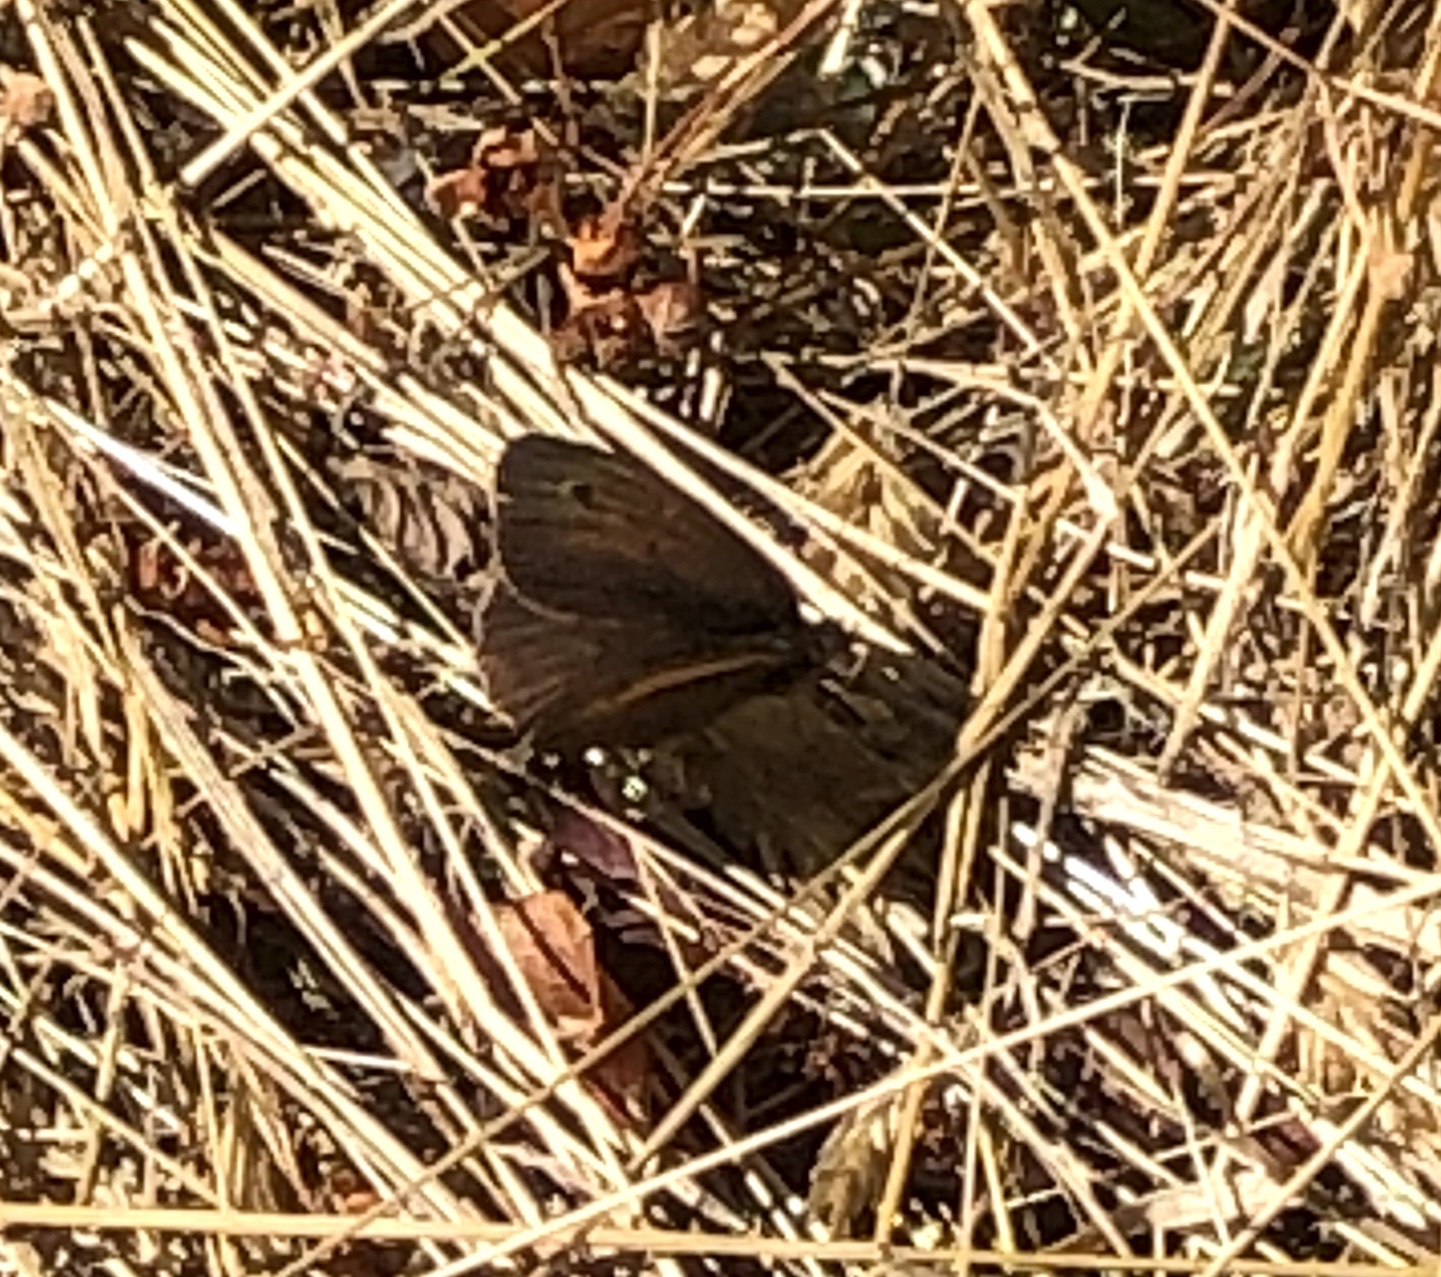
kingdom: Animalia
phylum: Arthropoda
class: Insecta
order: Lepidoptera
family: Nymphalidae
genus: Maniola
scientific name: Maniola jurtina
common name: Meadow brown
